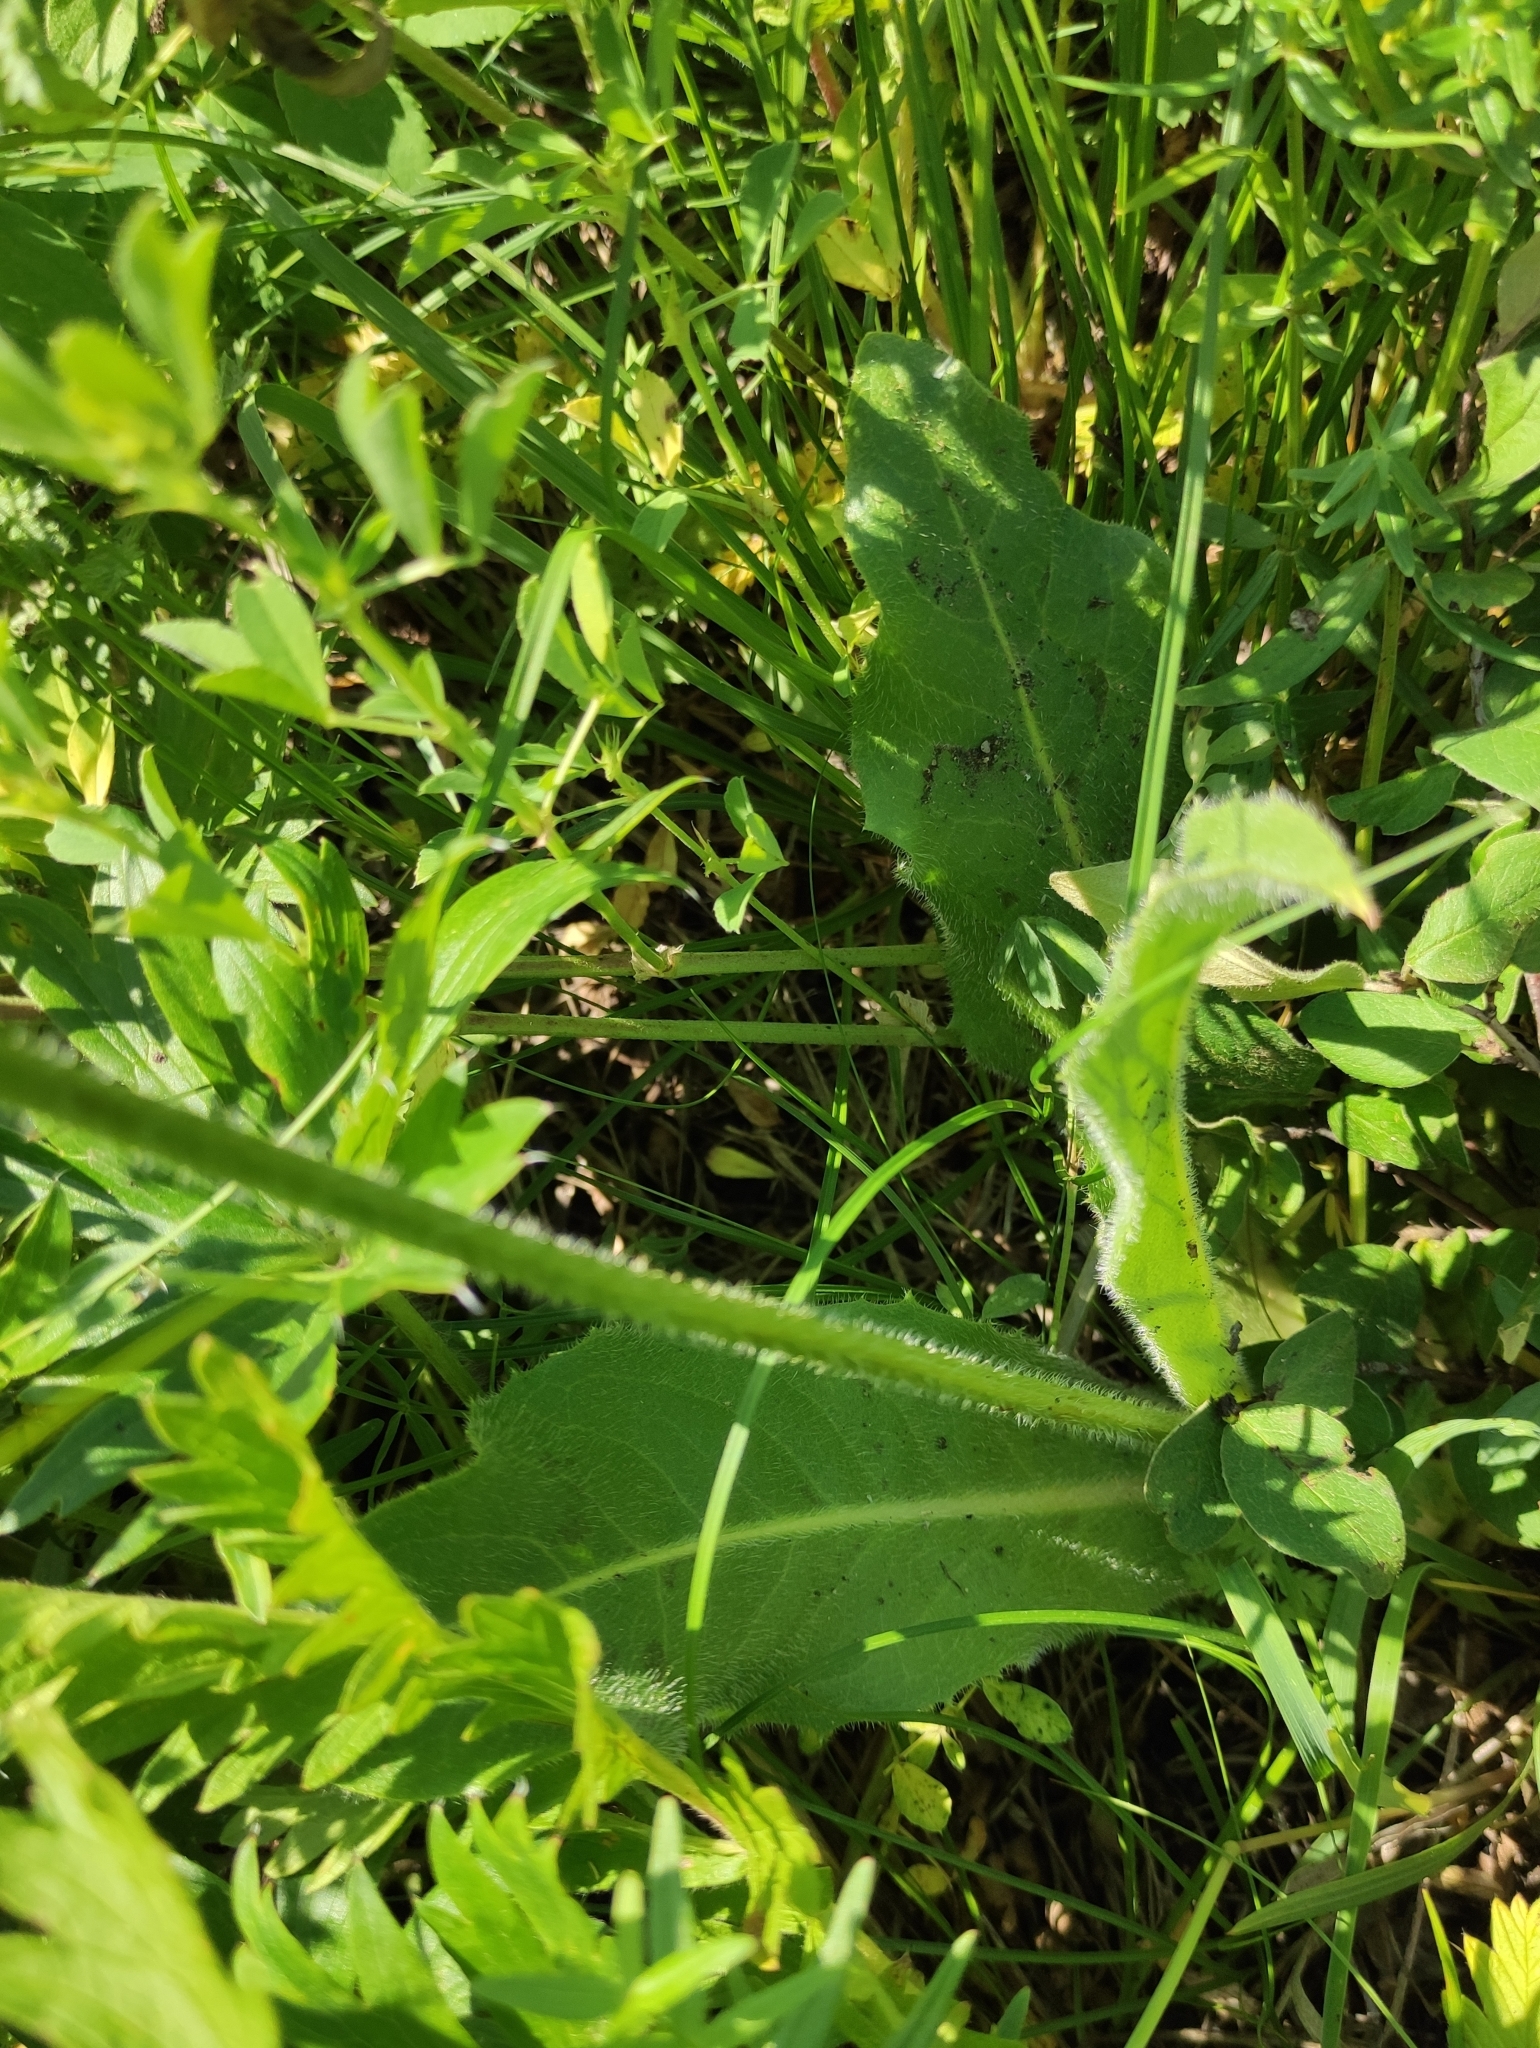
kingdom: Plantae
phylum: Tracheophyta
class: Magnoliopsida
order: Asterales
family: Asteraceae
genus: Trommsdorffia
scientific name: Trommsdorffia maculata
